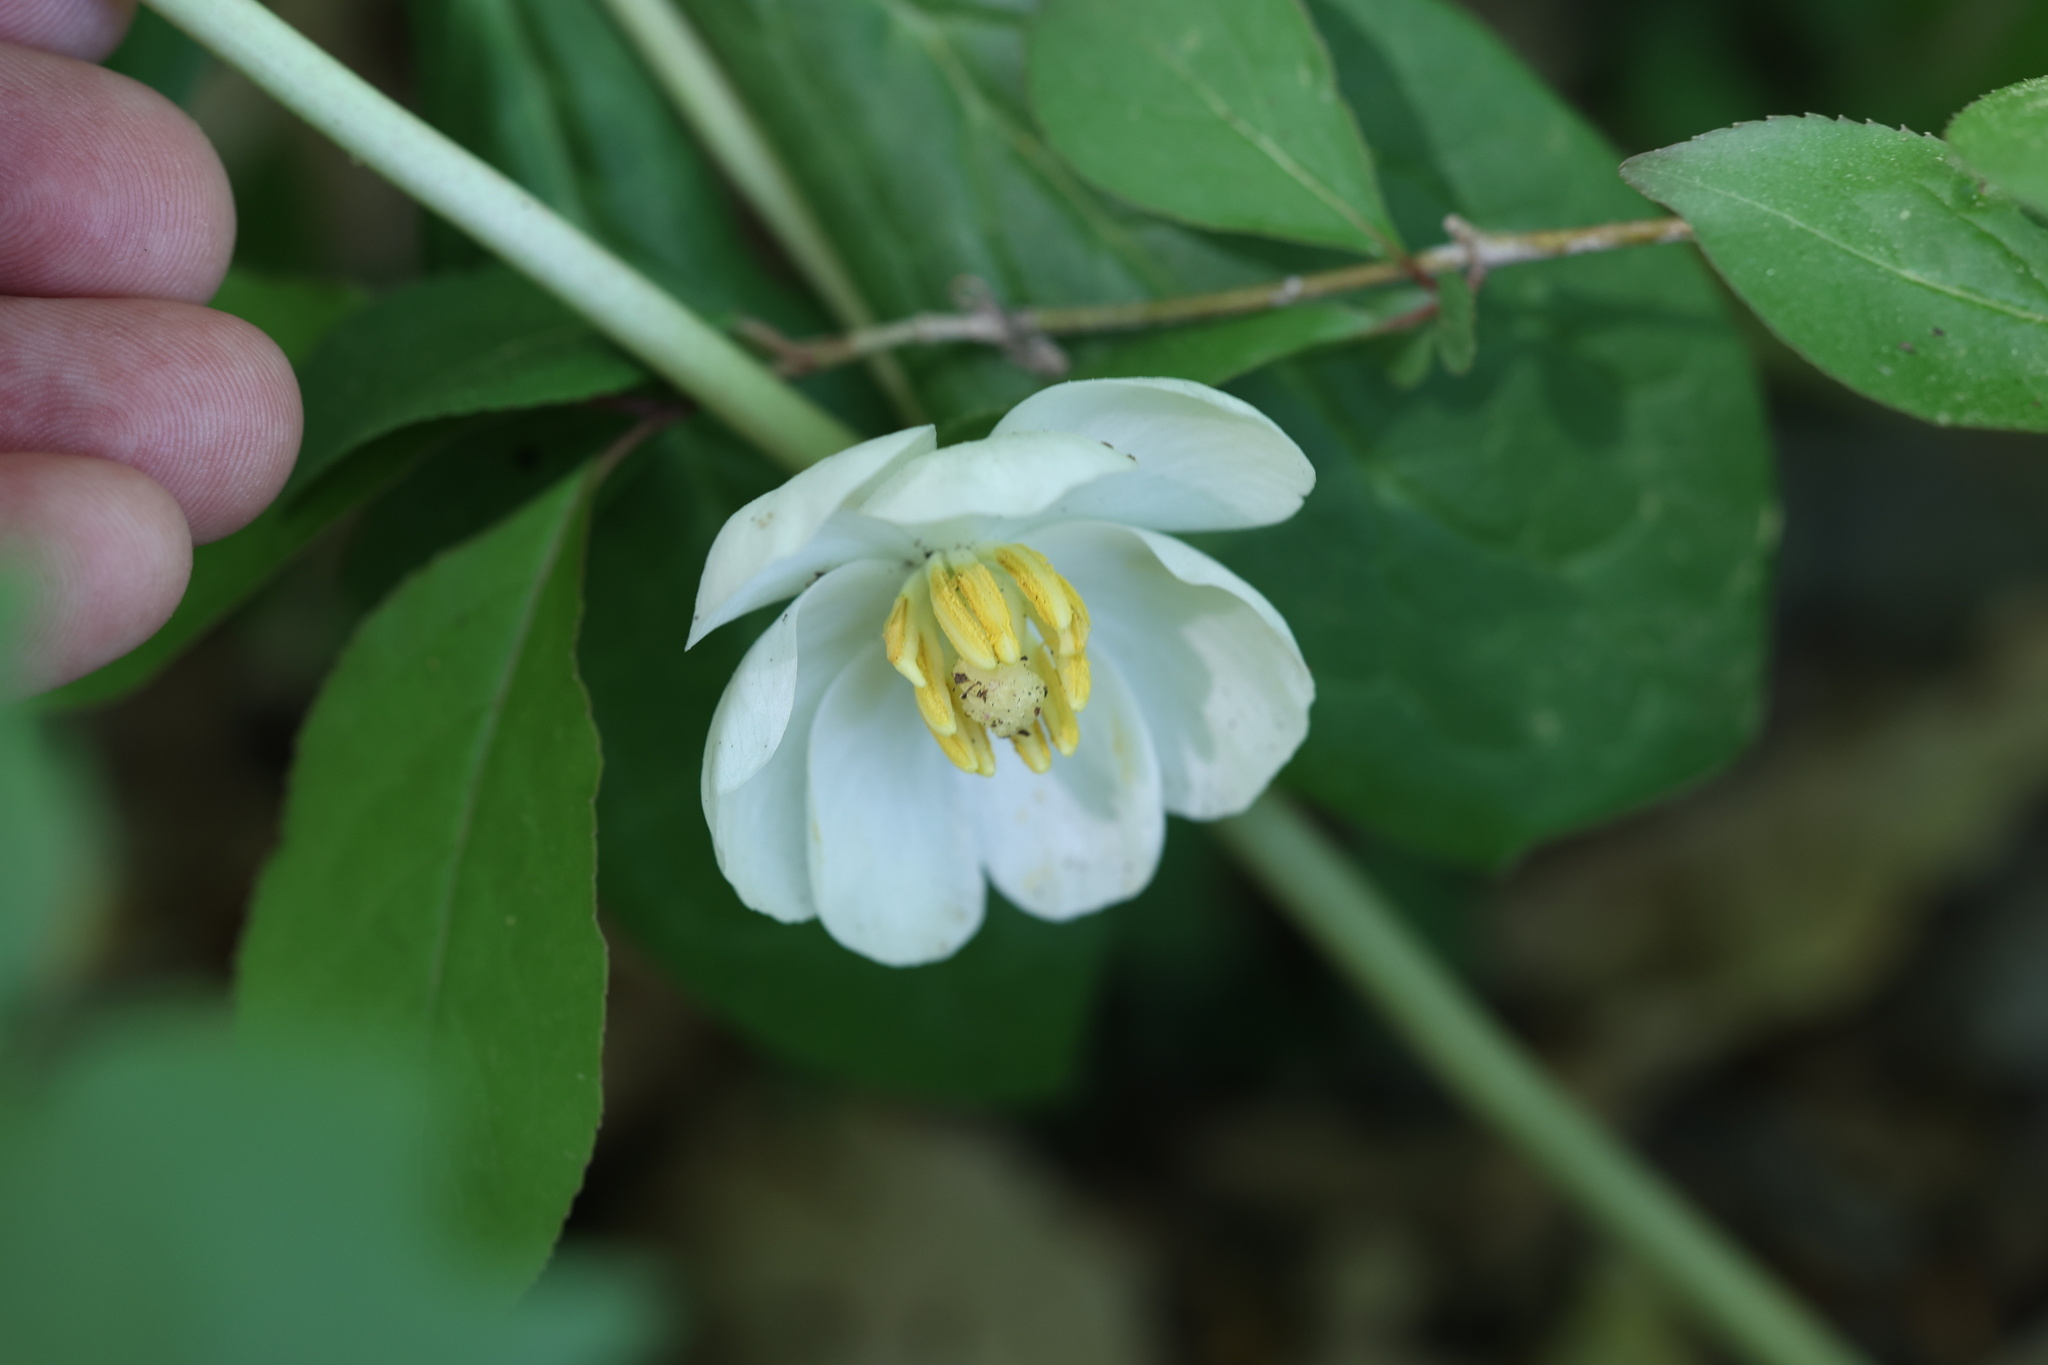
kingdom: Plantae
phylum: Tracheophyta
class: Magnoliopsida
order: Ranunculales
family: Berberidaceae
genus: Podophyllum
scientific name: Podophyllum peltatum
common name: Wild mandrake
